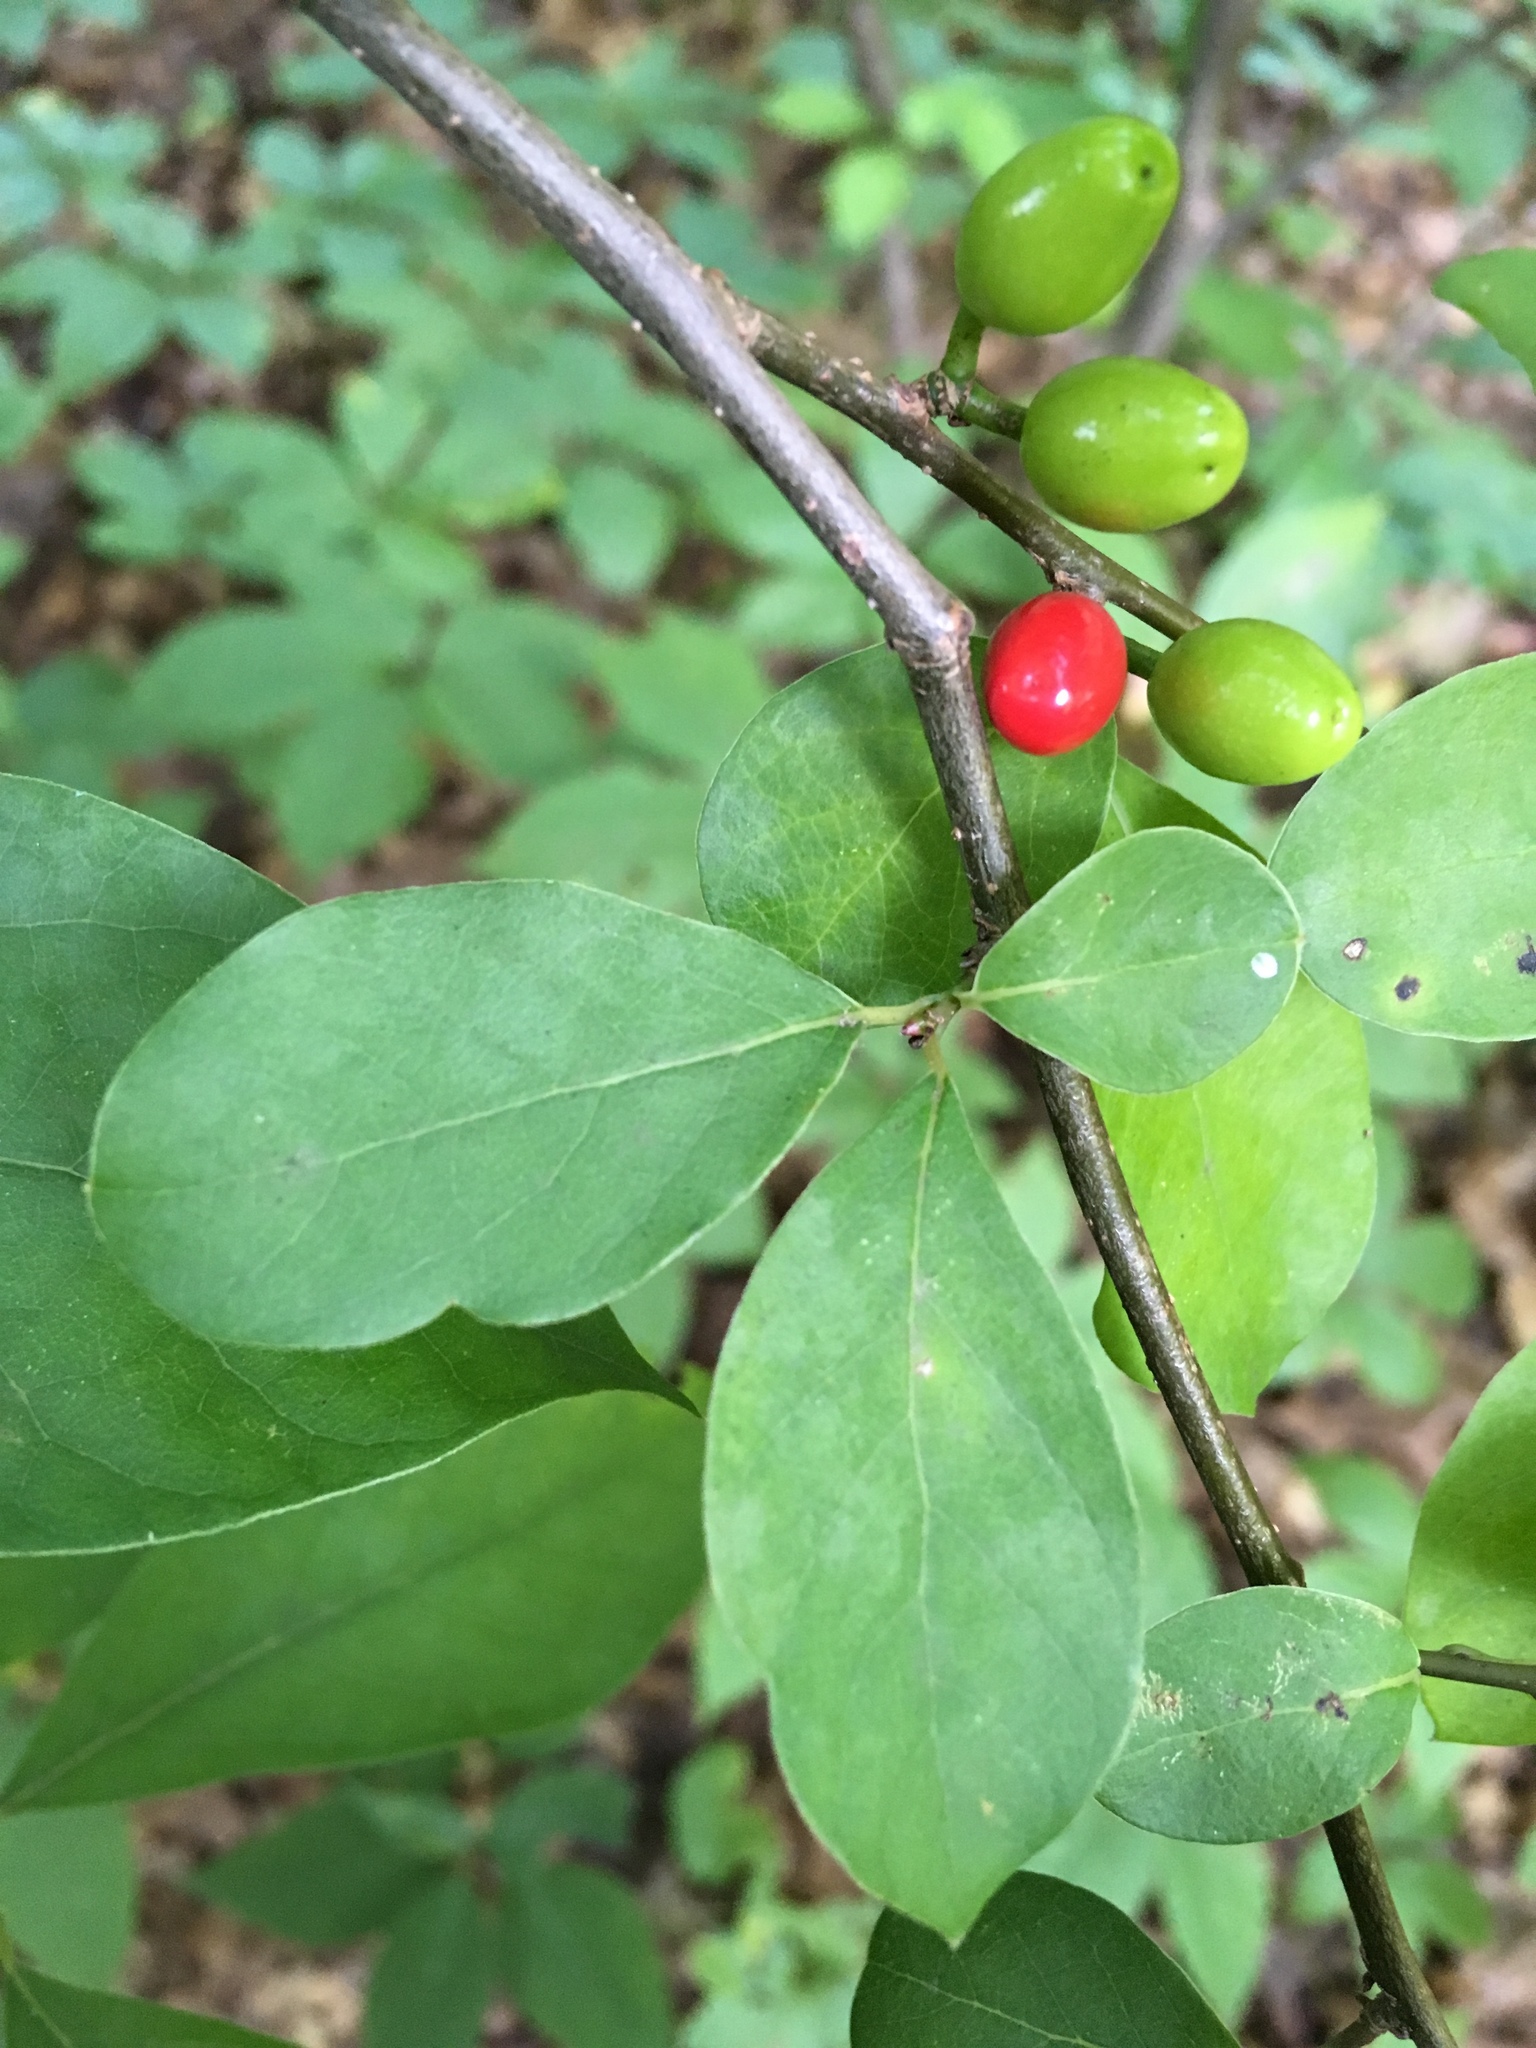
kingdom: Plantae
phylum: Tracheophyta
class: Magnoliopsida
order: Laurales
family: Lauraceae
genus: Lindera
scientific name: Lindera benzoin
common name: Spicebush
